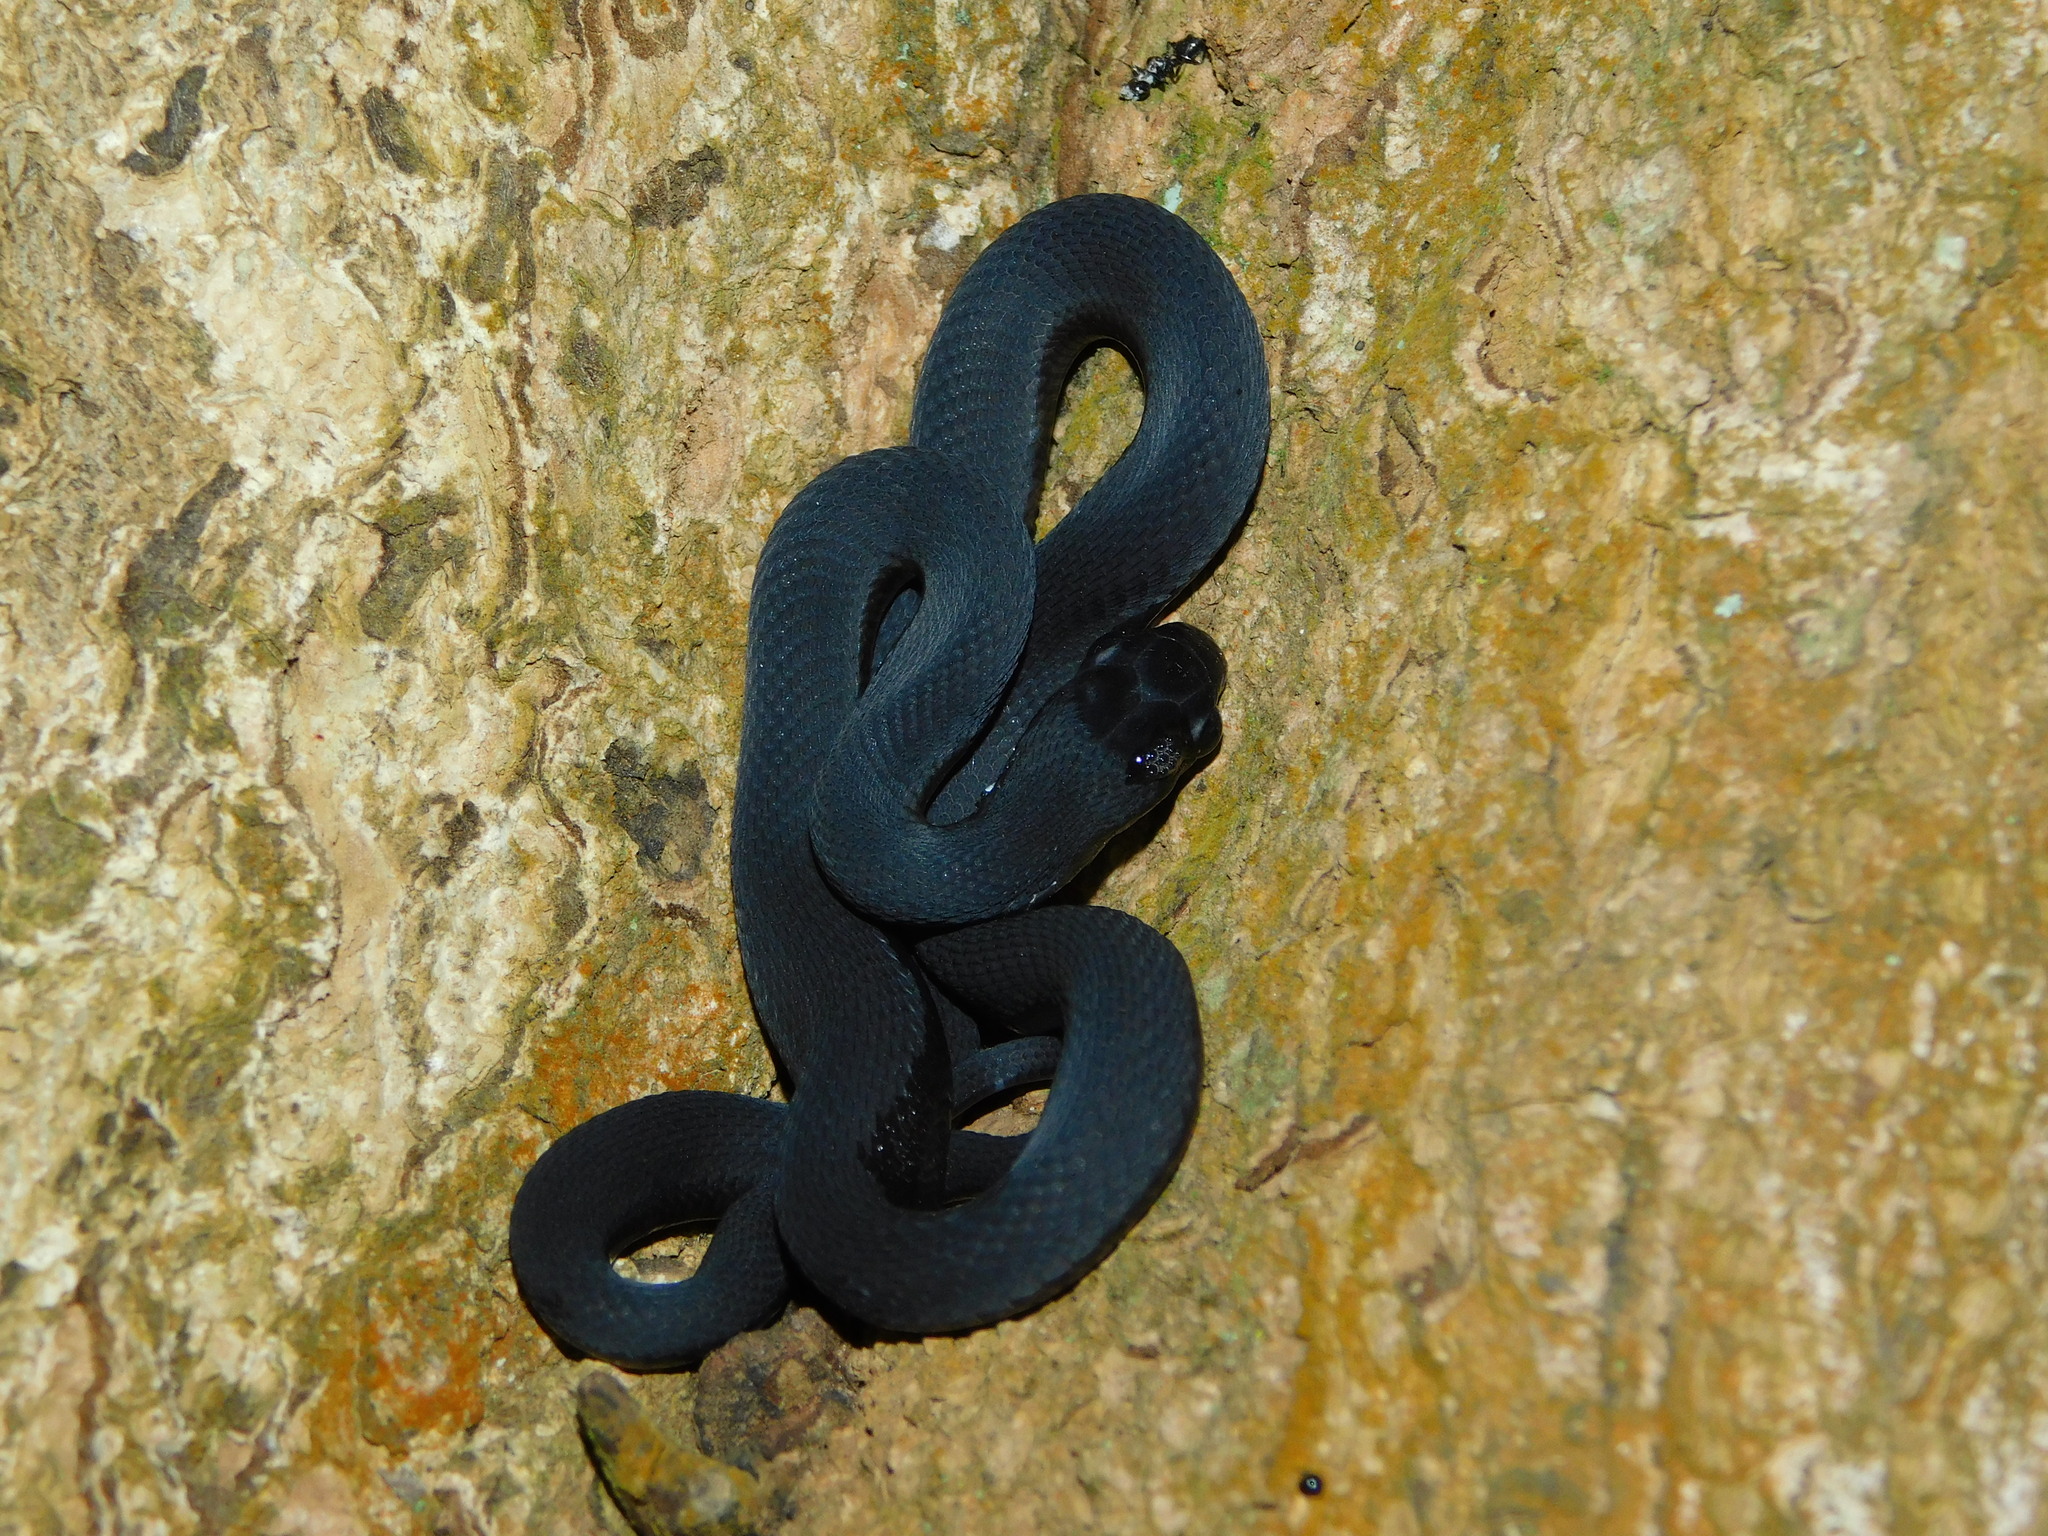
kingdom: Animalia
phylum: Chordata
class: Squamata
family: Colubridae
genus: Dasypeltis
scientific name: Dasypeltis atra
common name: African egg-eating snake
